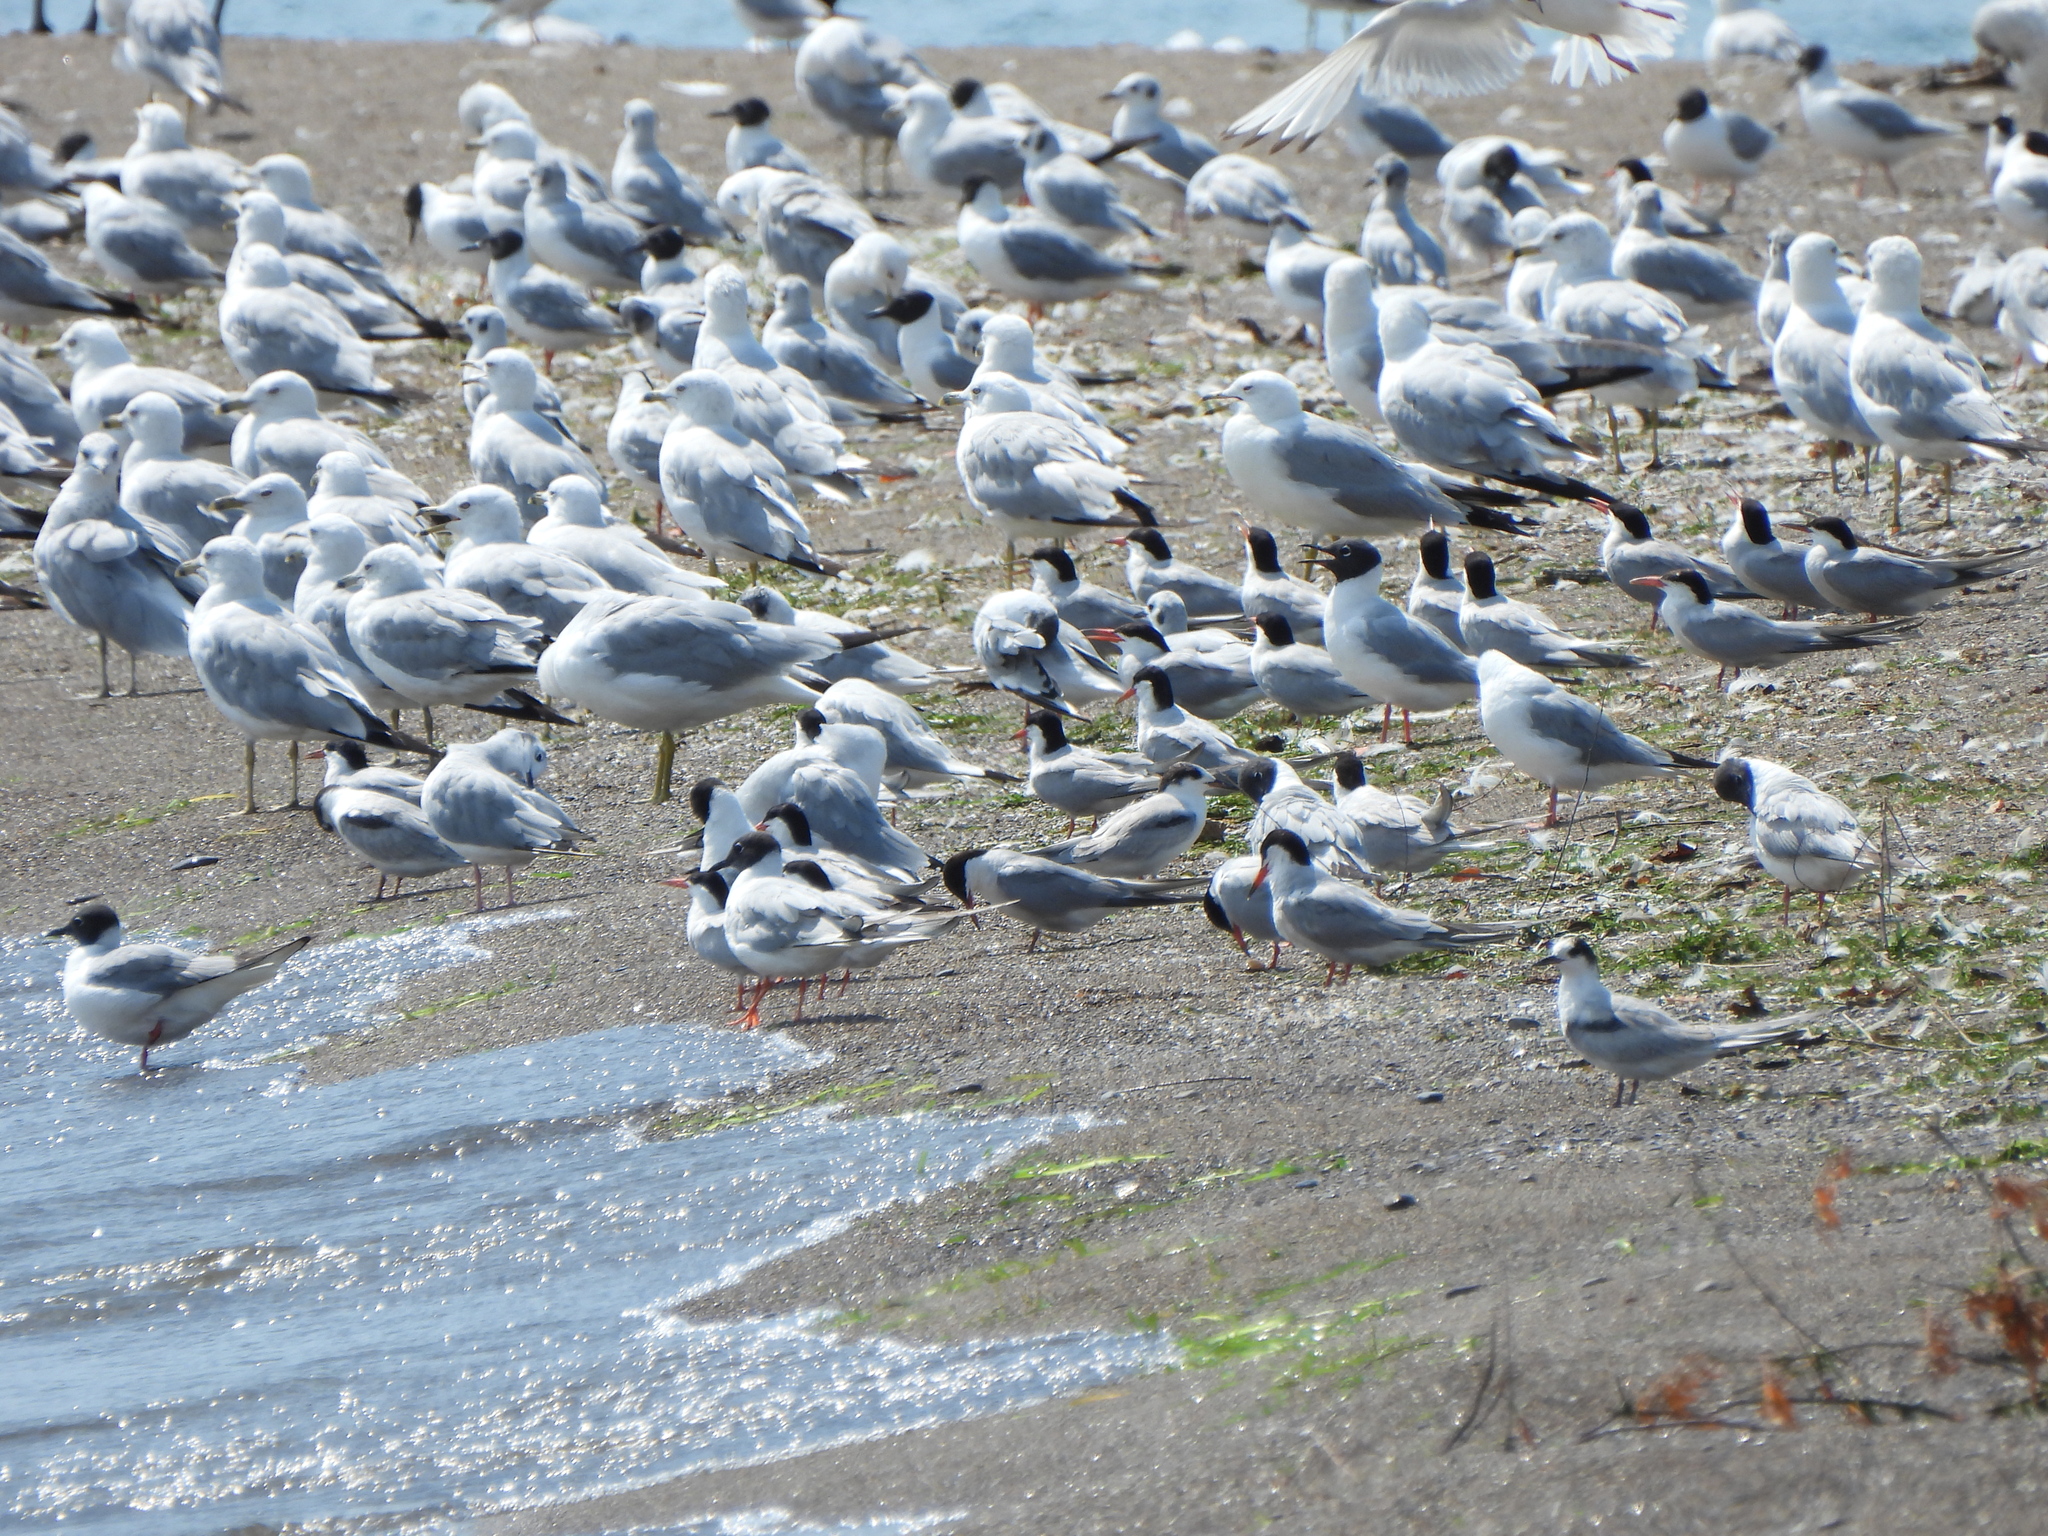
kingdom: Animalia
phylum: Chordata
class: Aves
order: Charadriiformes
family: Laridae
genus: Sterna
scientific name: Sterna
